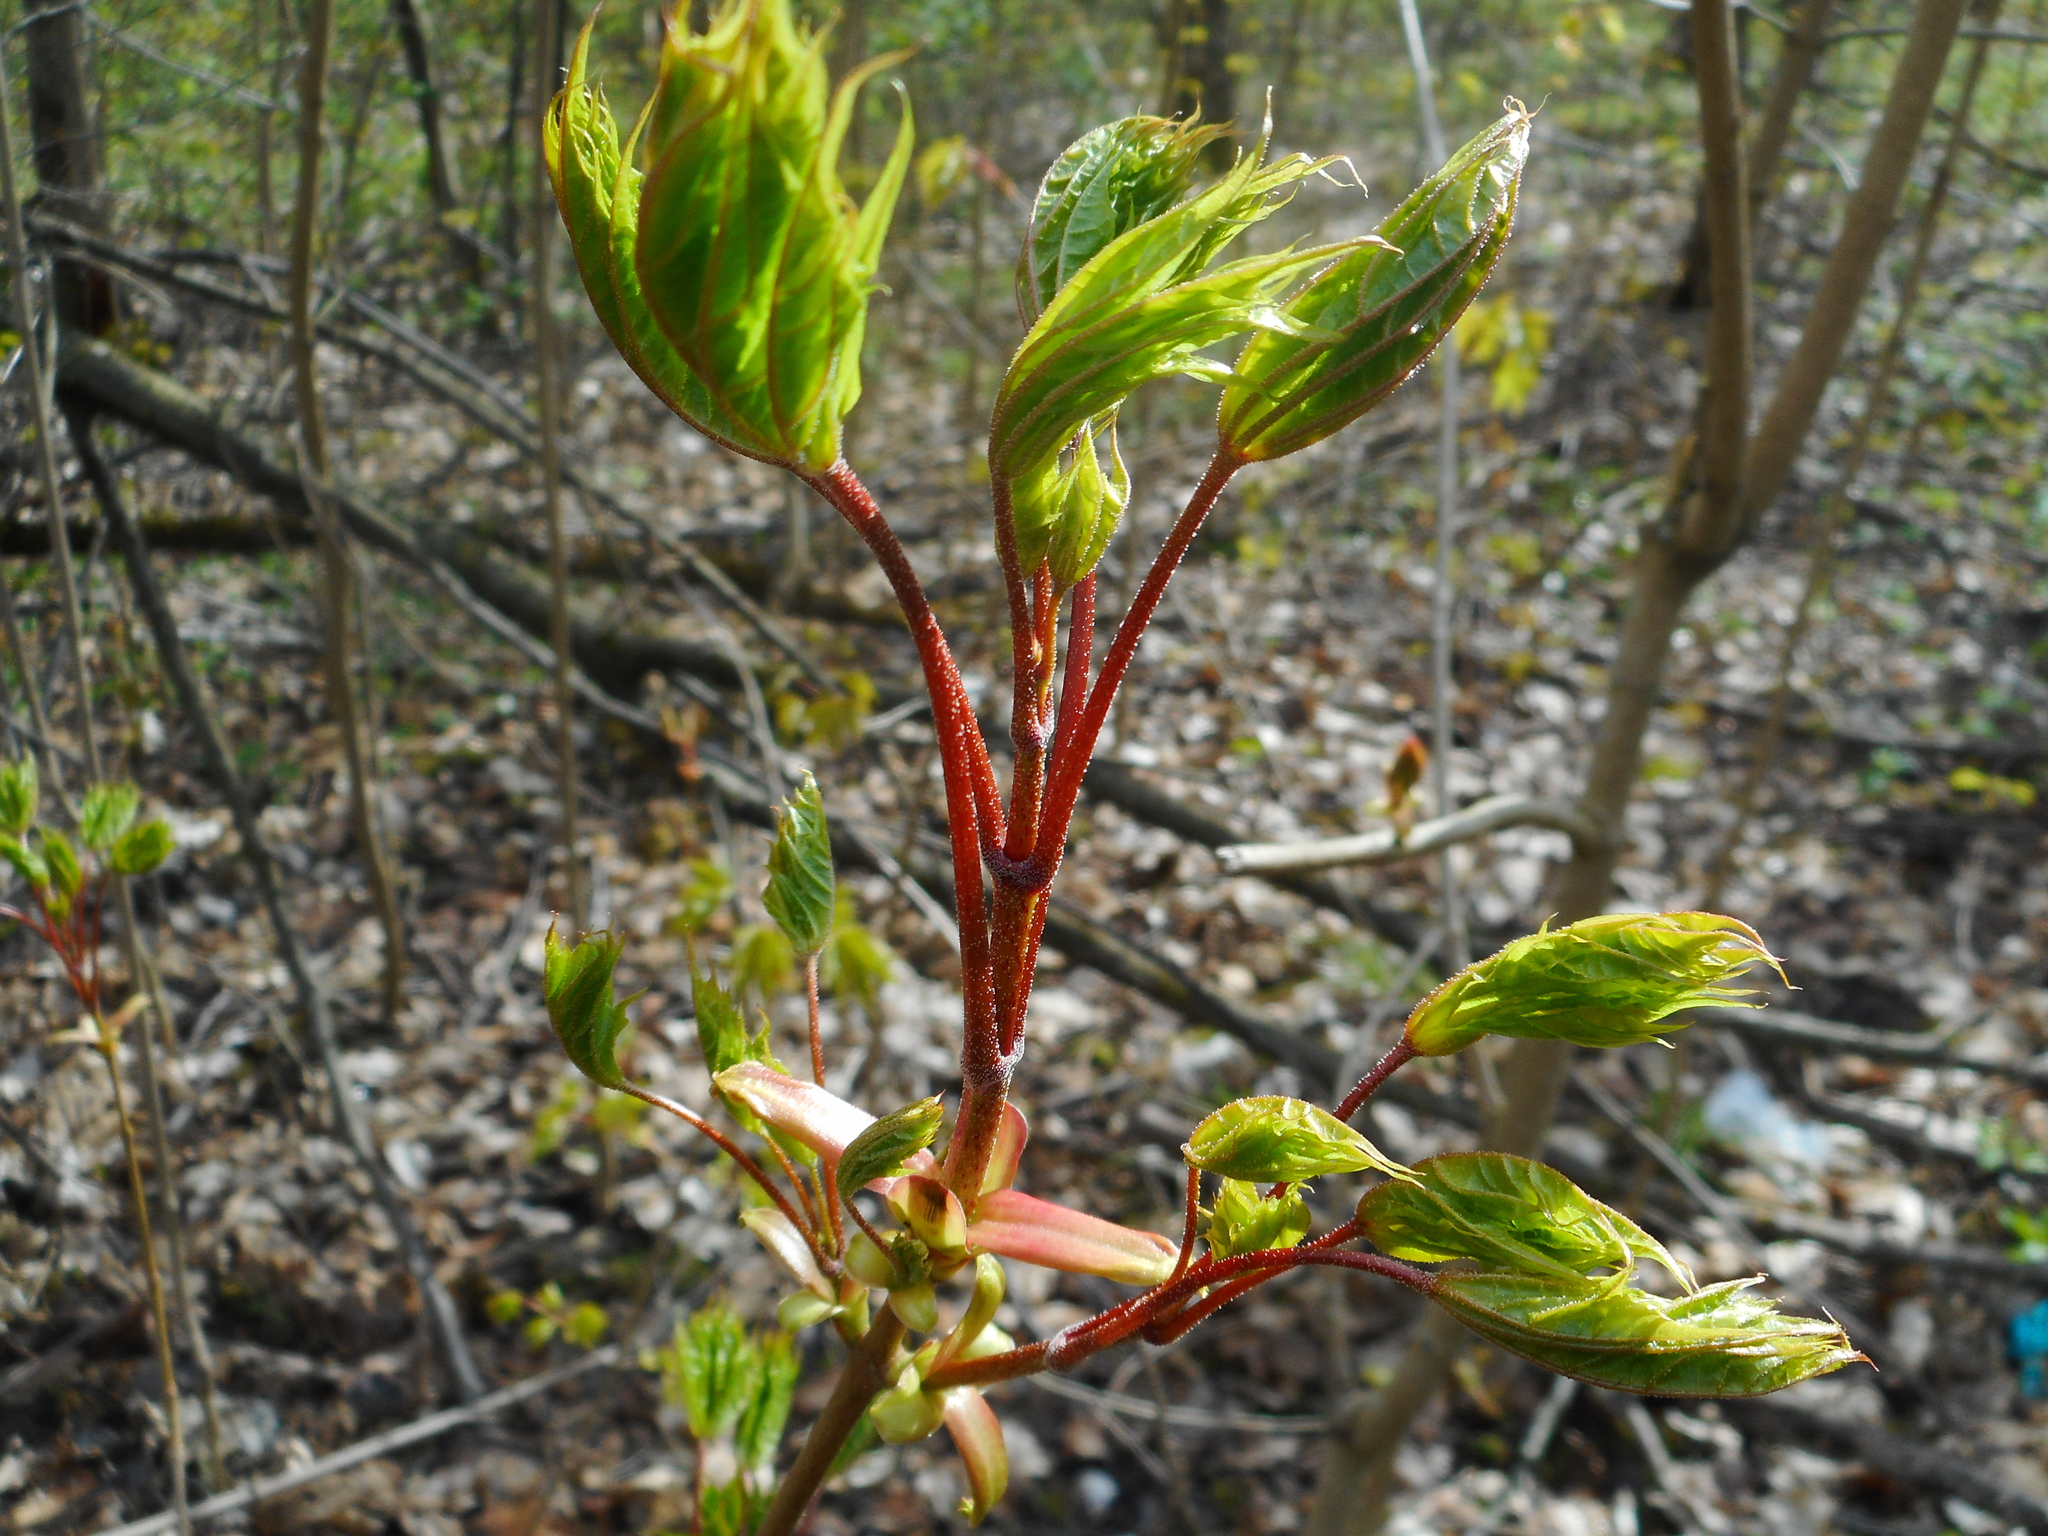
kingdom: Plantae
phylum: Tracheophyta
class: Magnoliopsida
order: Sapindales
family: Sapindaceae
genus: Acer
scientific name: Acer platanoides
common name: Norway maple
